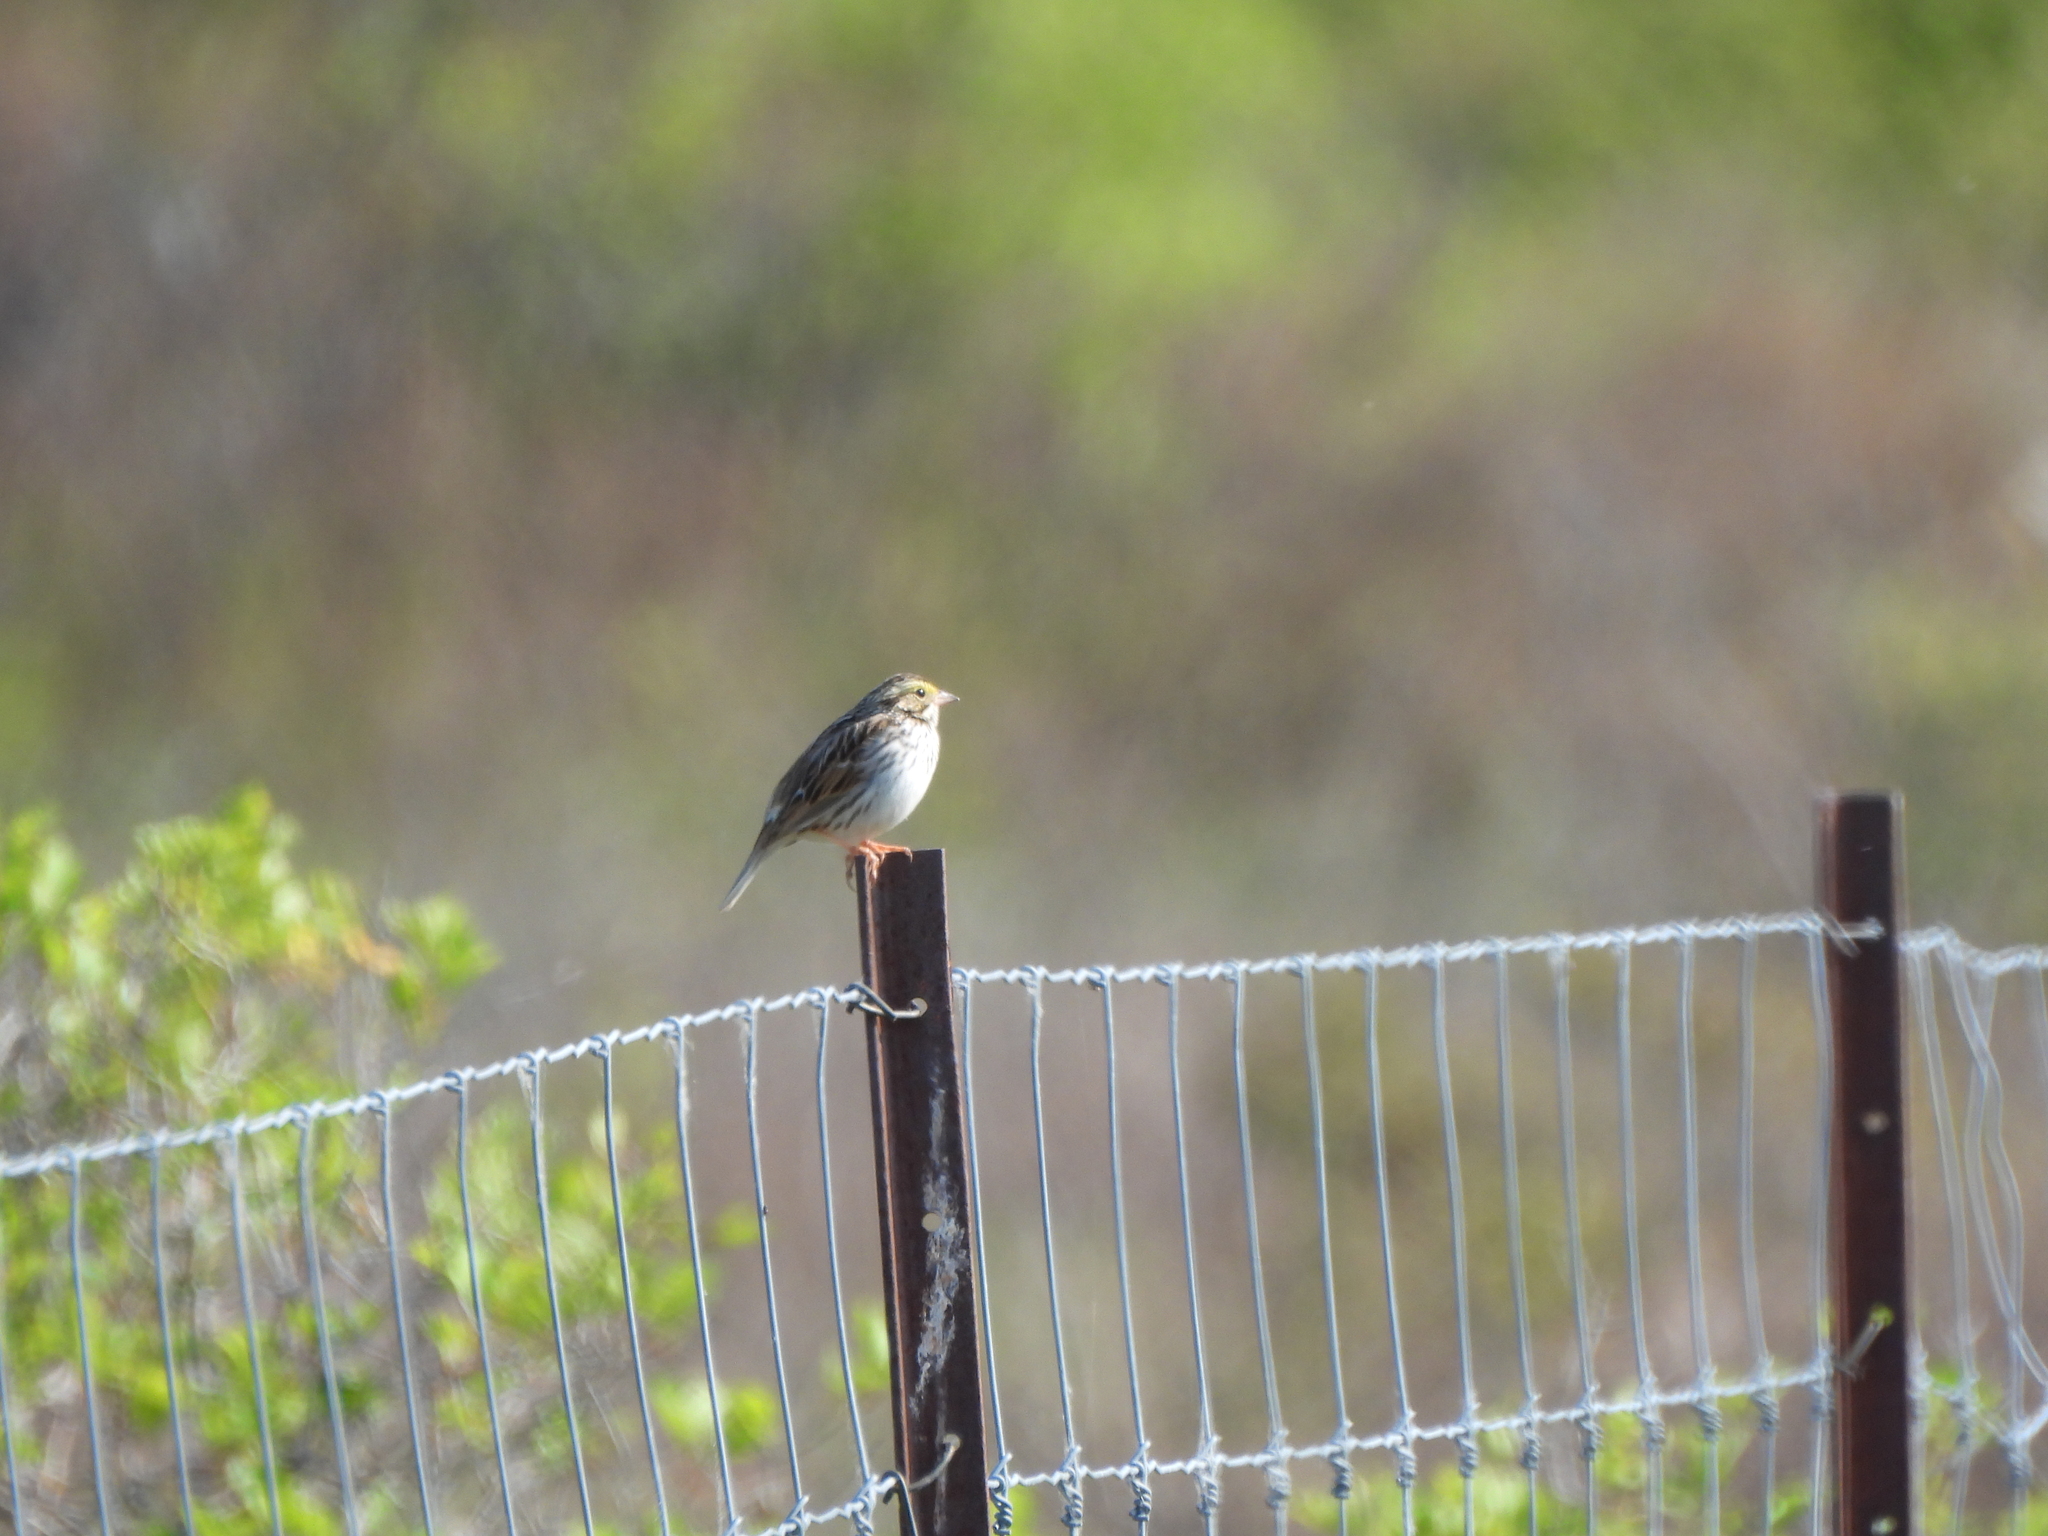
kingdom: Animalia
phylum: Chordata
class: Aves
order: Passeriformes
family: Passerellidae
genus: Passerculus
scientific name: Passerculus sandwichensis
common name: Savannah sparrow
